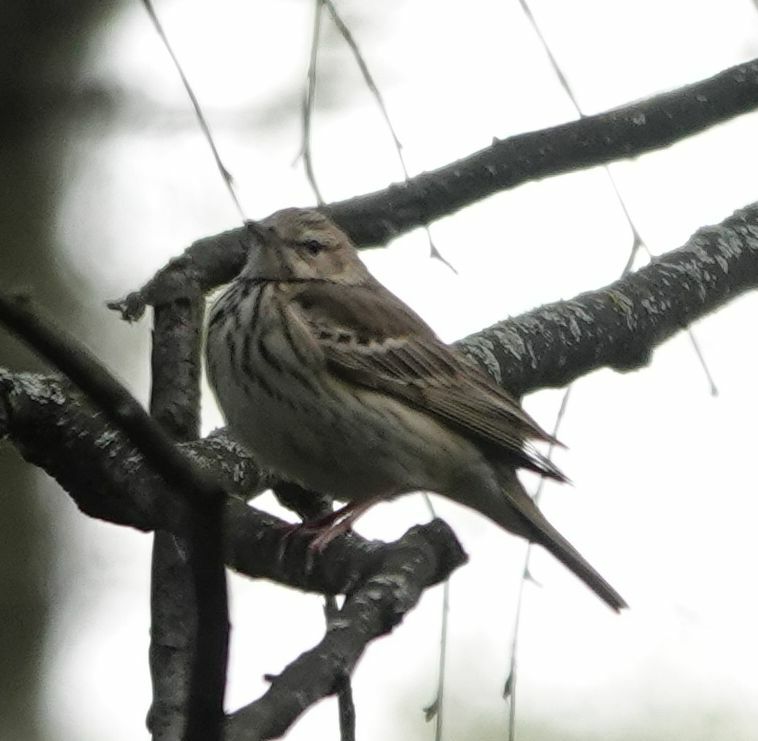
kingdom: Animalia
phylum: Chordata
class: Aves
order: Passeriformes
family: Motacillidae
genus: Anthus
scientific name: Anthus trivialis
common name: Tree pipit
